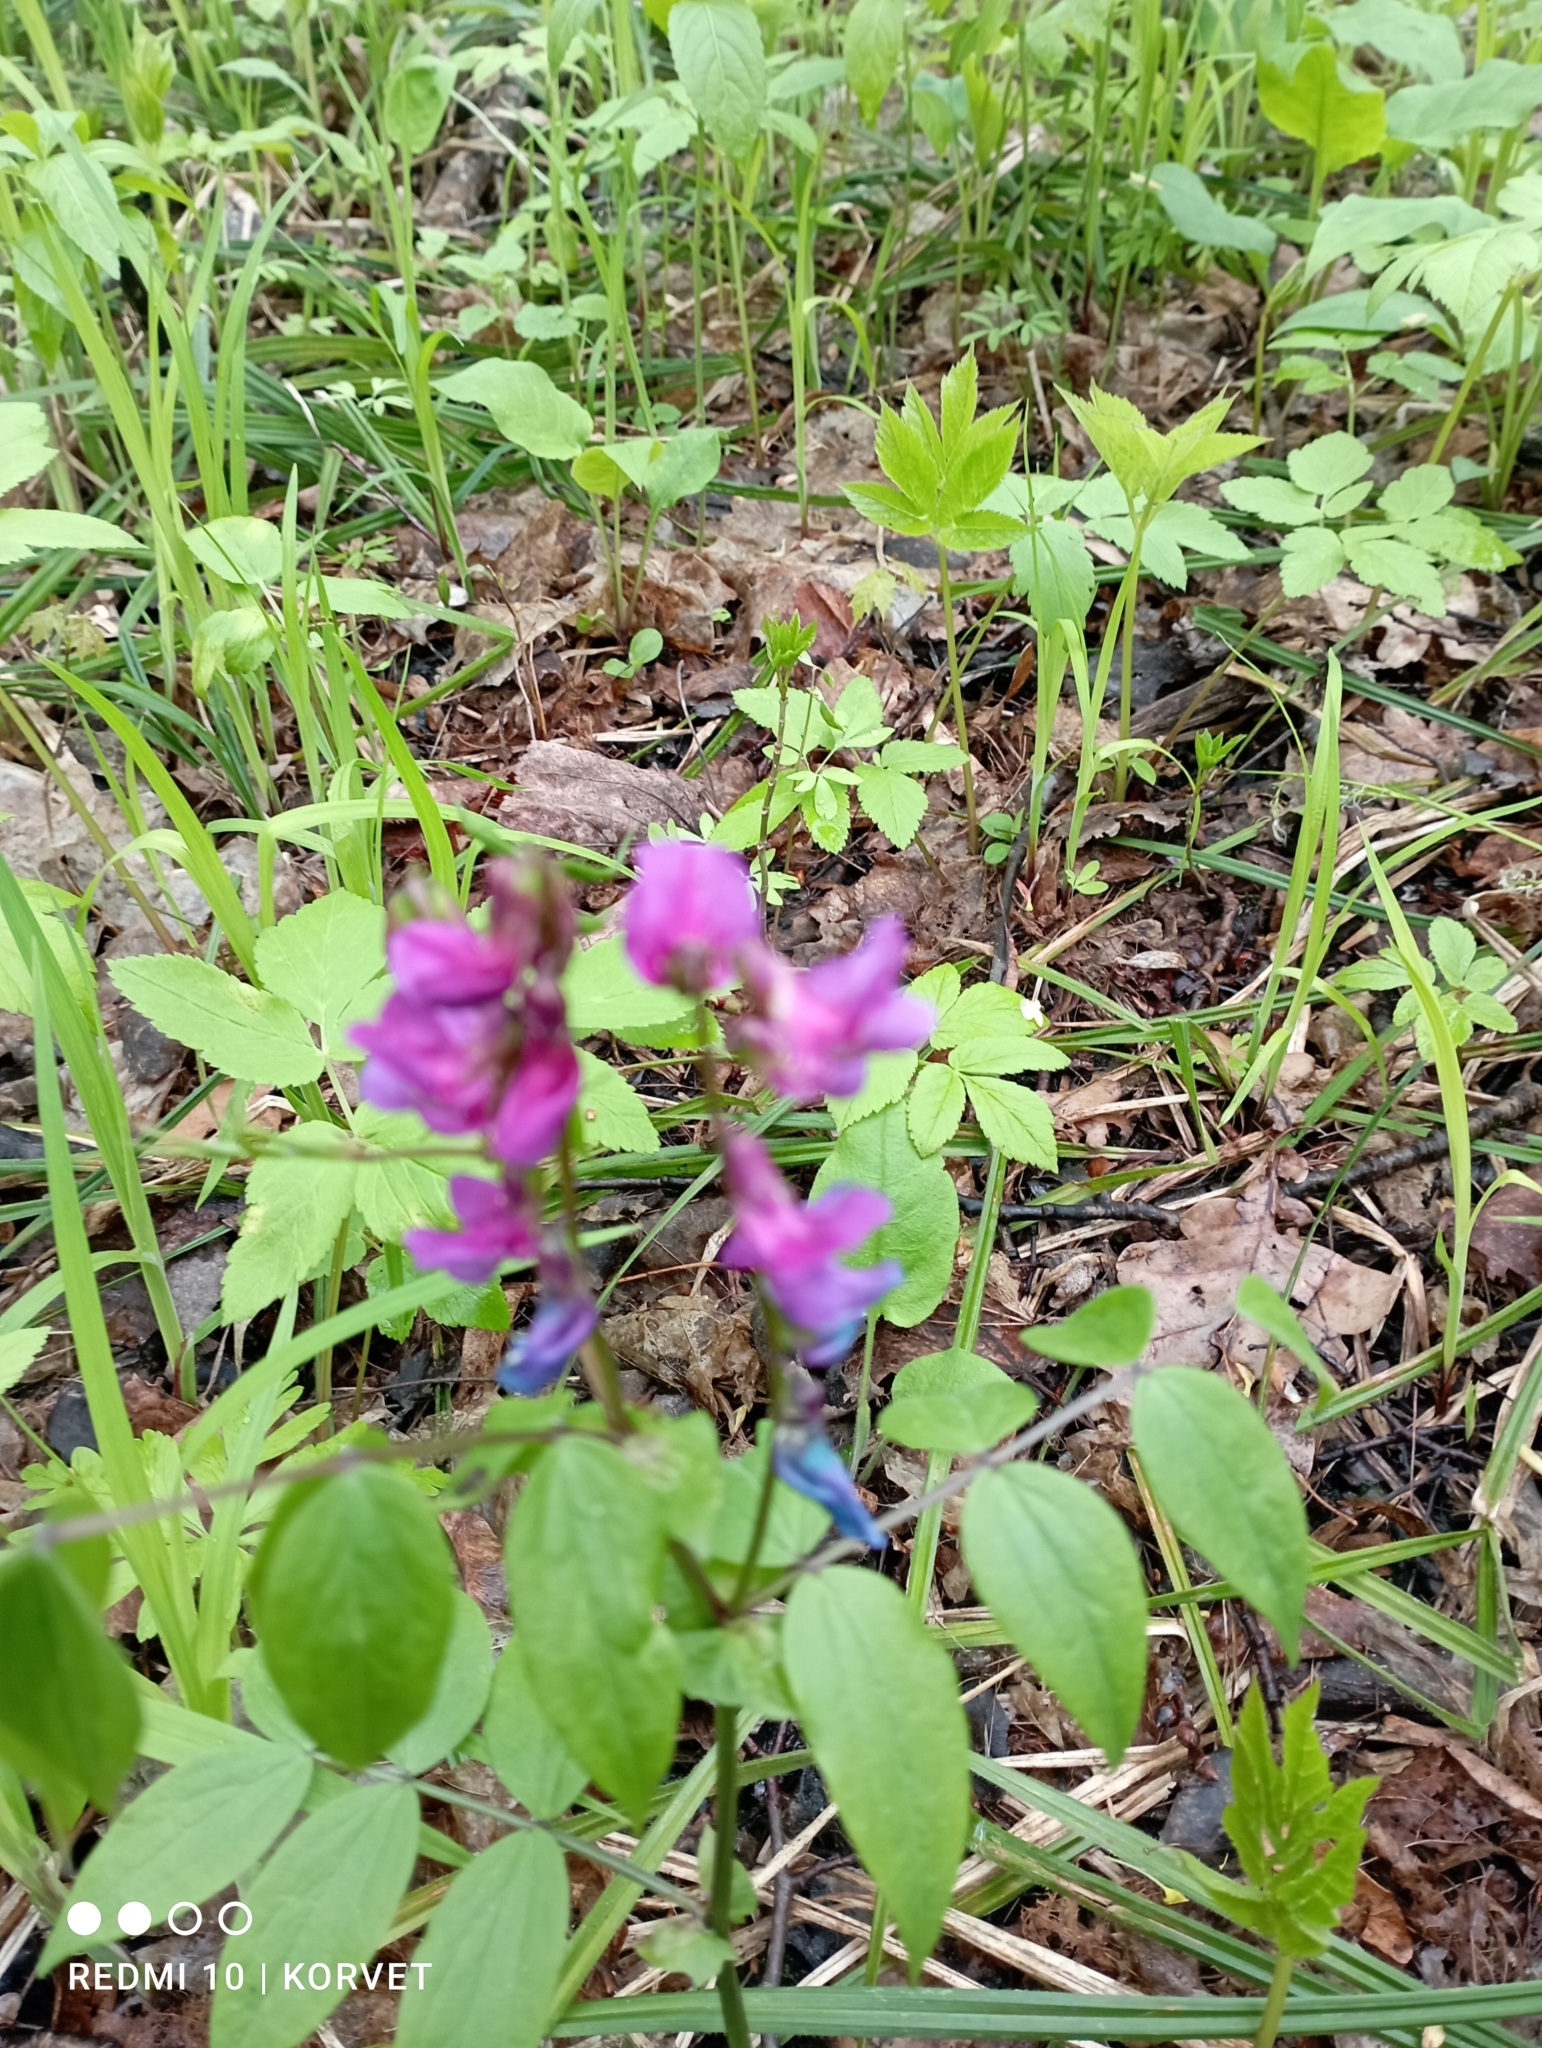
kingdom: Plantae
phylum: Tracheophyta
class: Magnoliopsida
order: Fabales
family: Fabaceae
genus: Lathyrus
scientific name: Lathyrus vernus
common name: Spring pea
